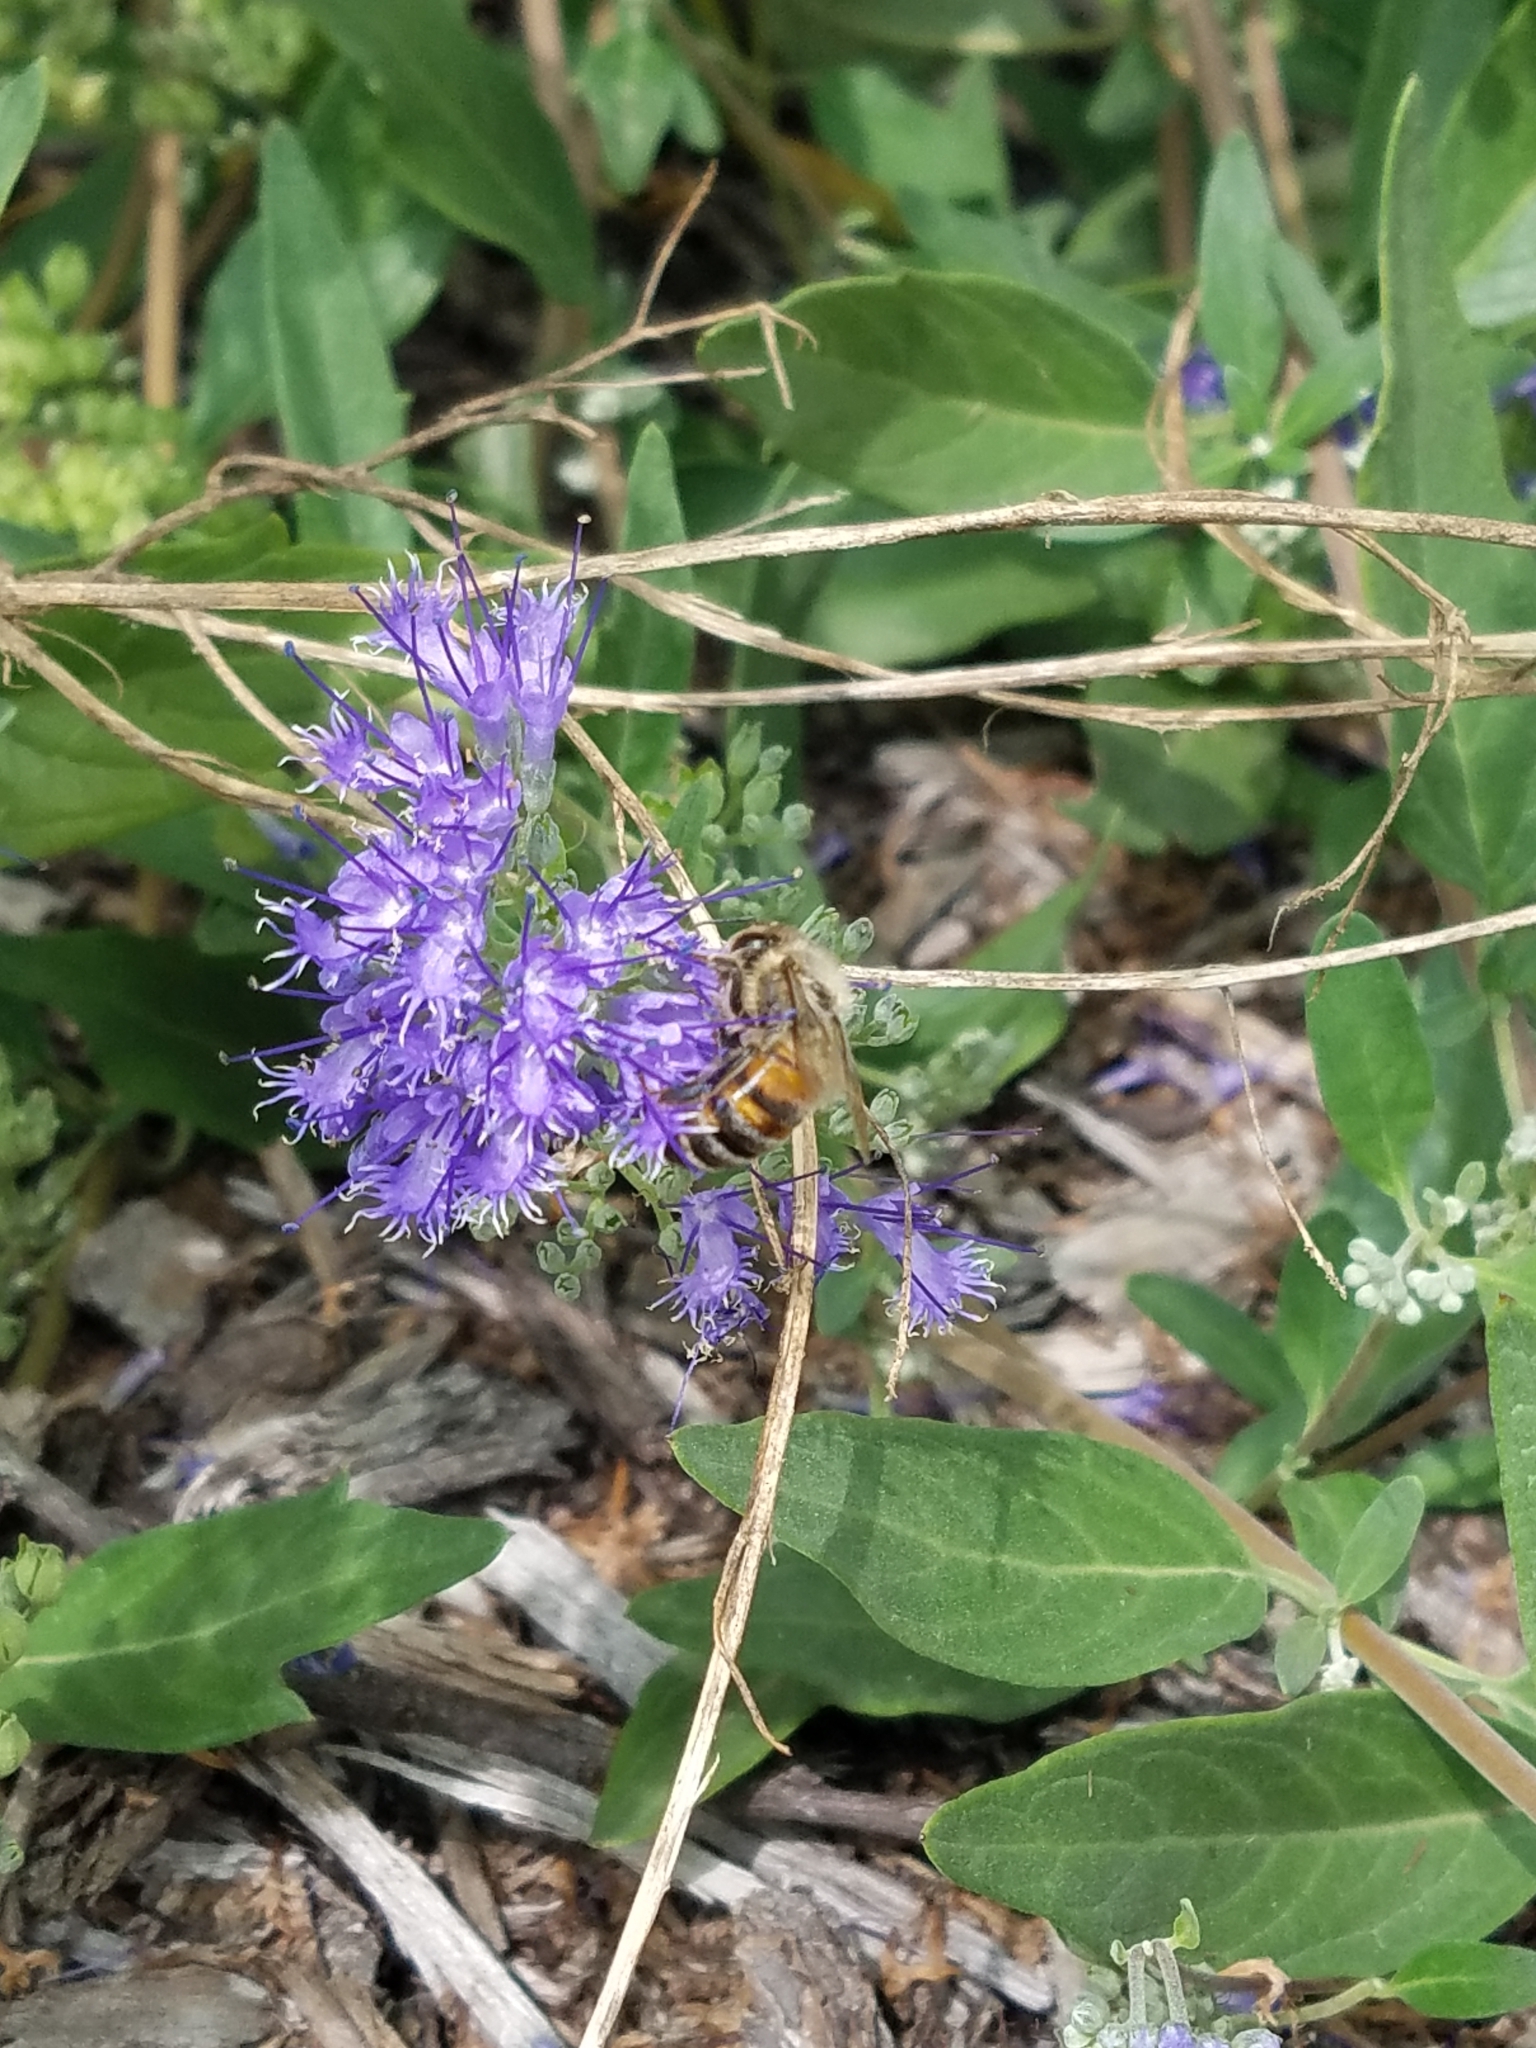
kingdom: Animalia
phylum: Arthropoda
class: Insecta
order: Hymenoptera
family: Apidae
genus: Apis
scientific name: Apis mellifera
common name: Honey bee
